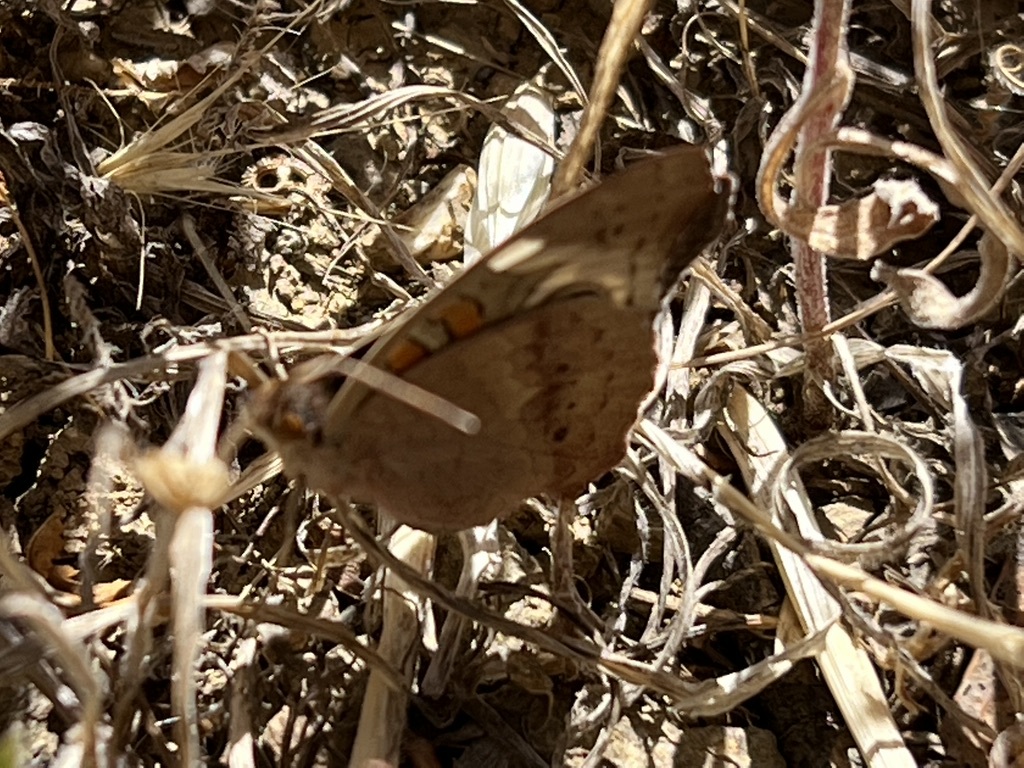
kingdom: Animalia
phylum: Arthropoda
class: Insecta
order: Lepidoptera
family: Nymphalidae
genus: Junonia
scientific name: Junonia grisea
